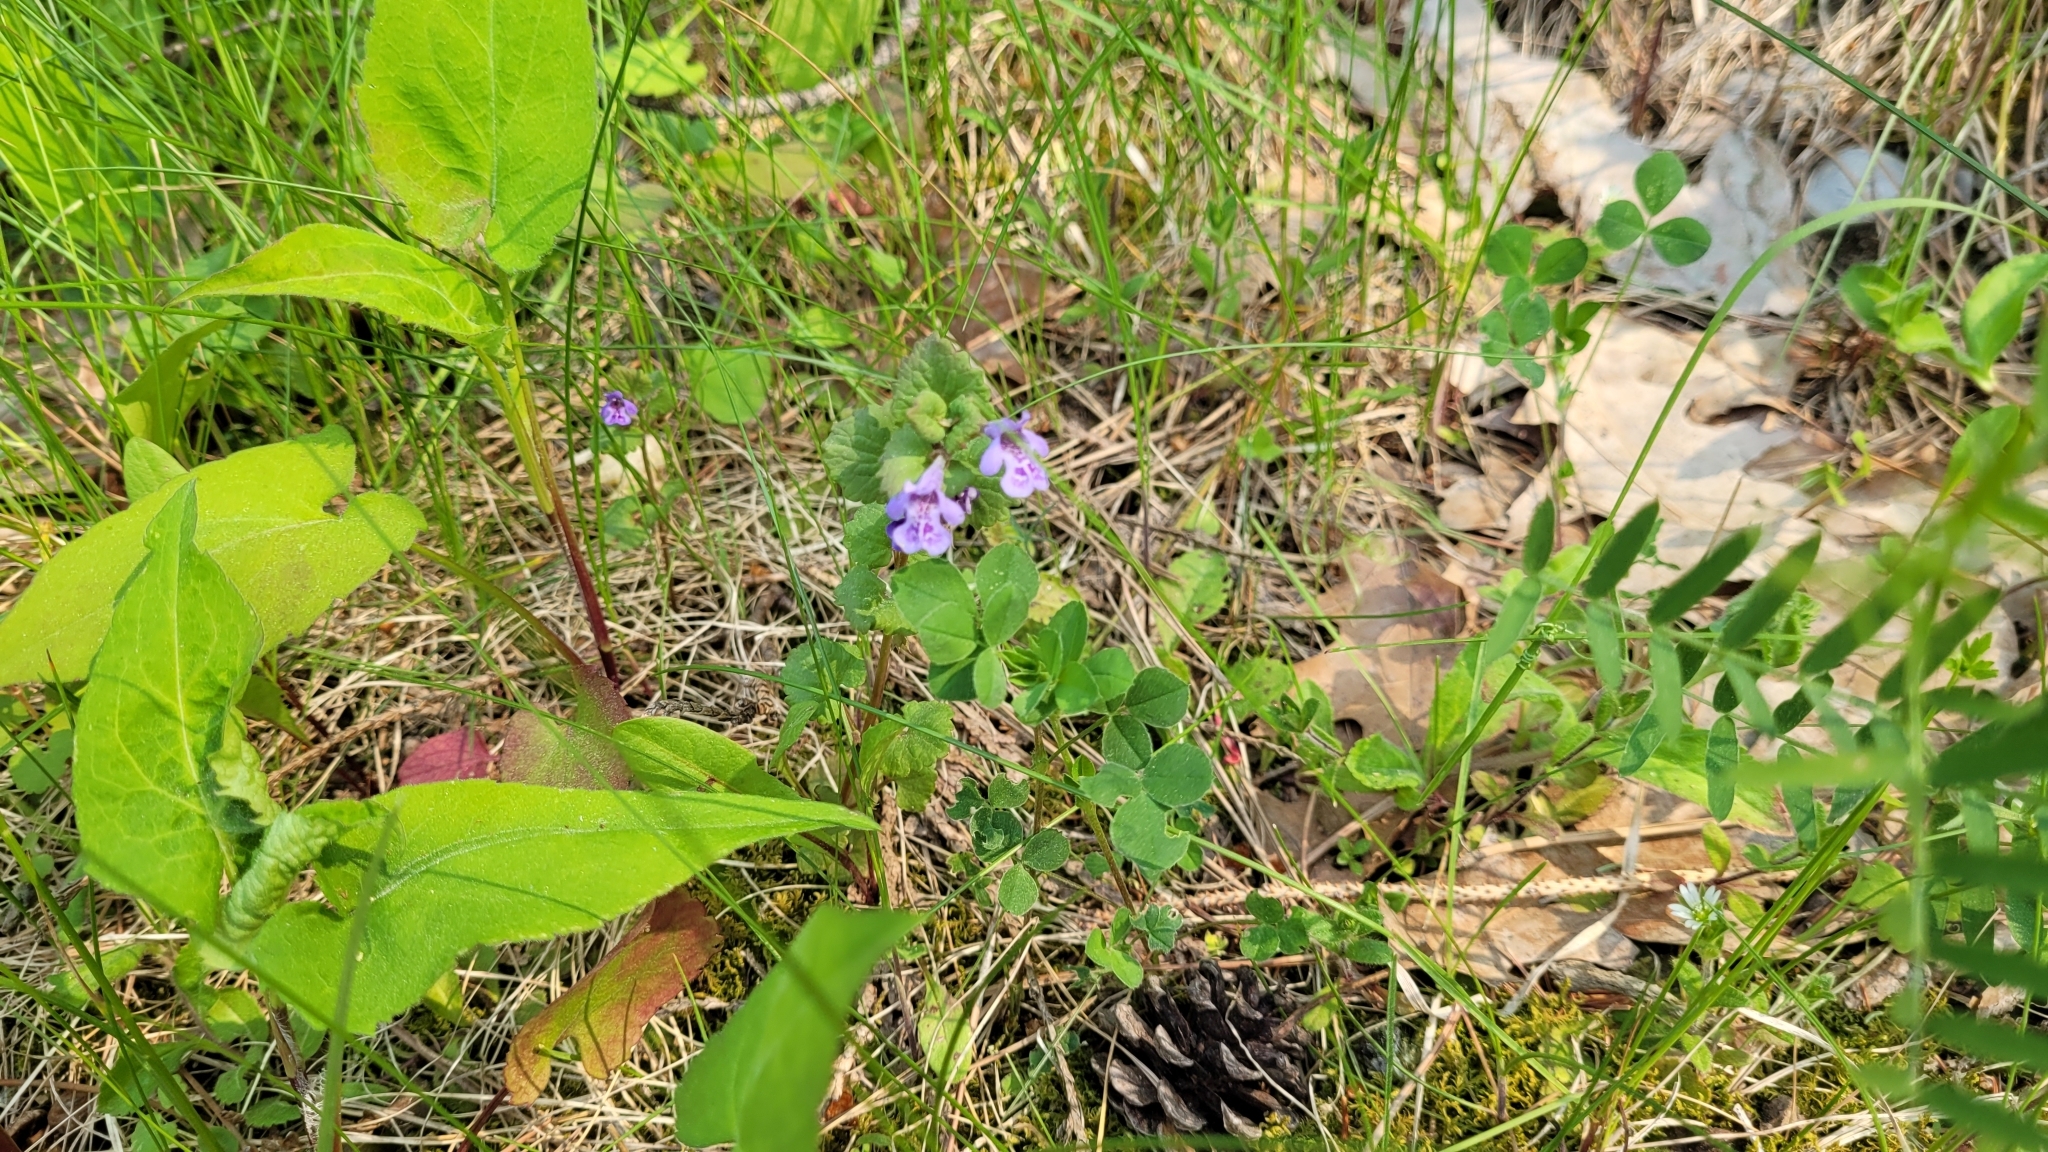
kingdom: Plantae
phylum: Tracheophyta
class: Magnoliopsida
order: Lamiales
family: Lamiaceae
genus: Glechoma
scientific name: Glechoma hederacea
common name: Ground ivy
